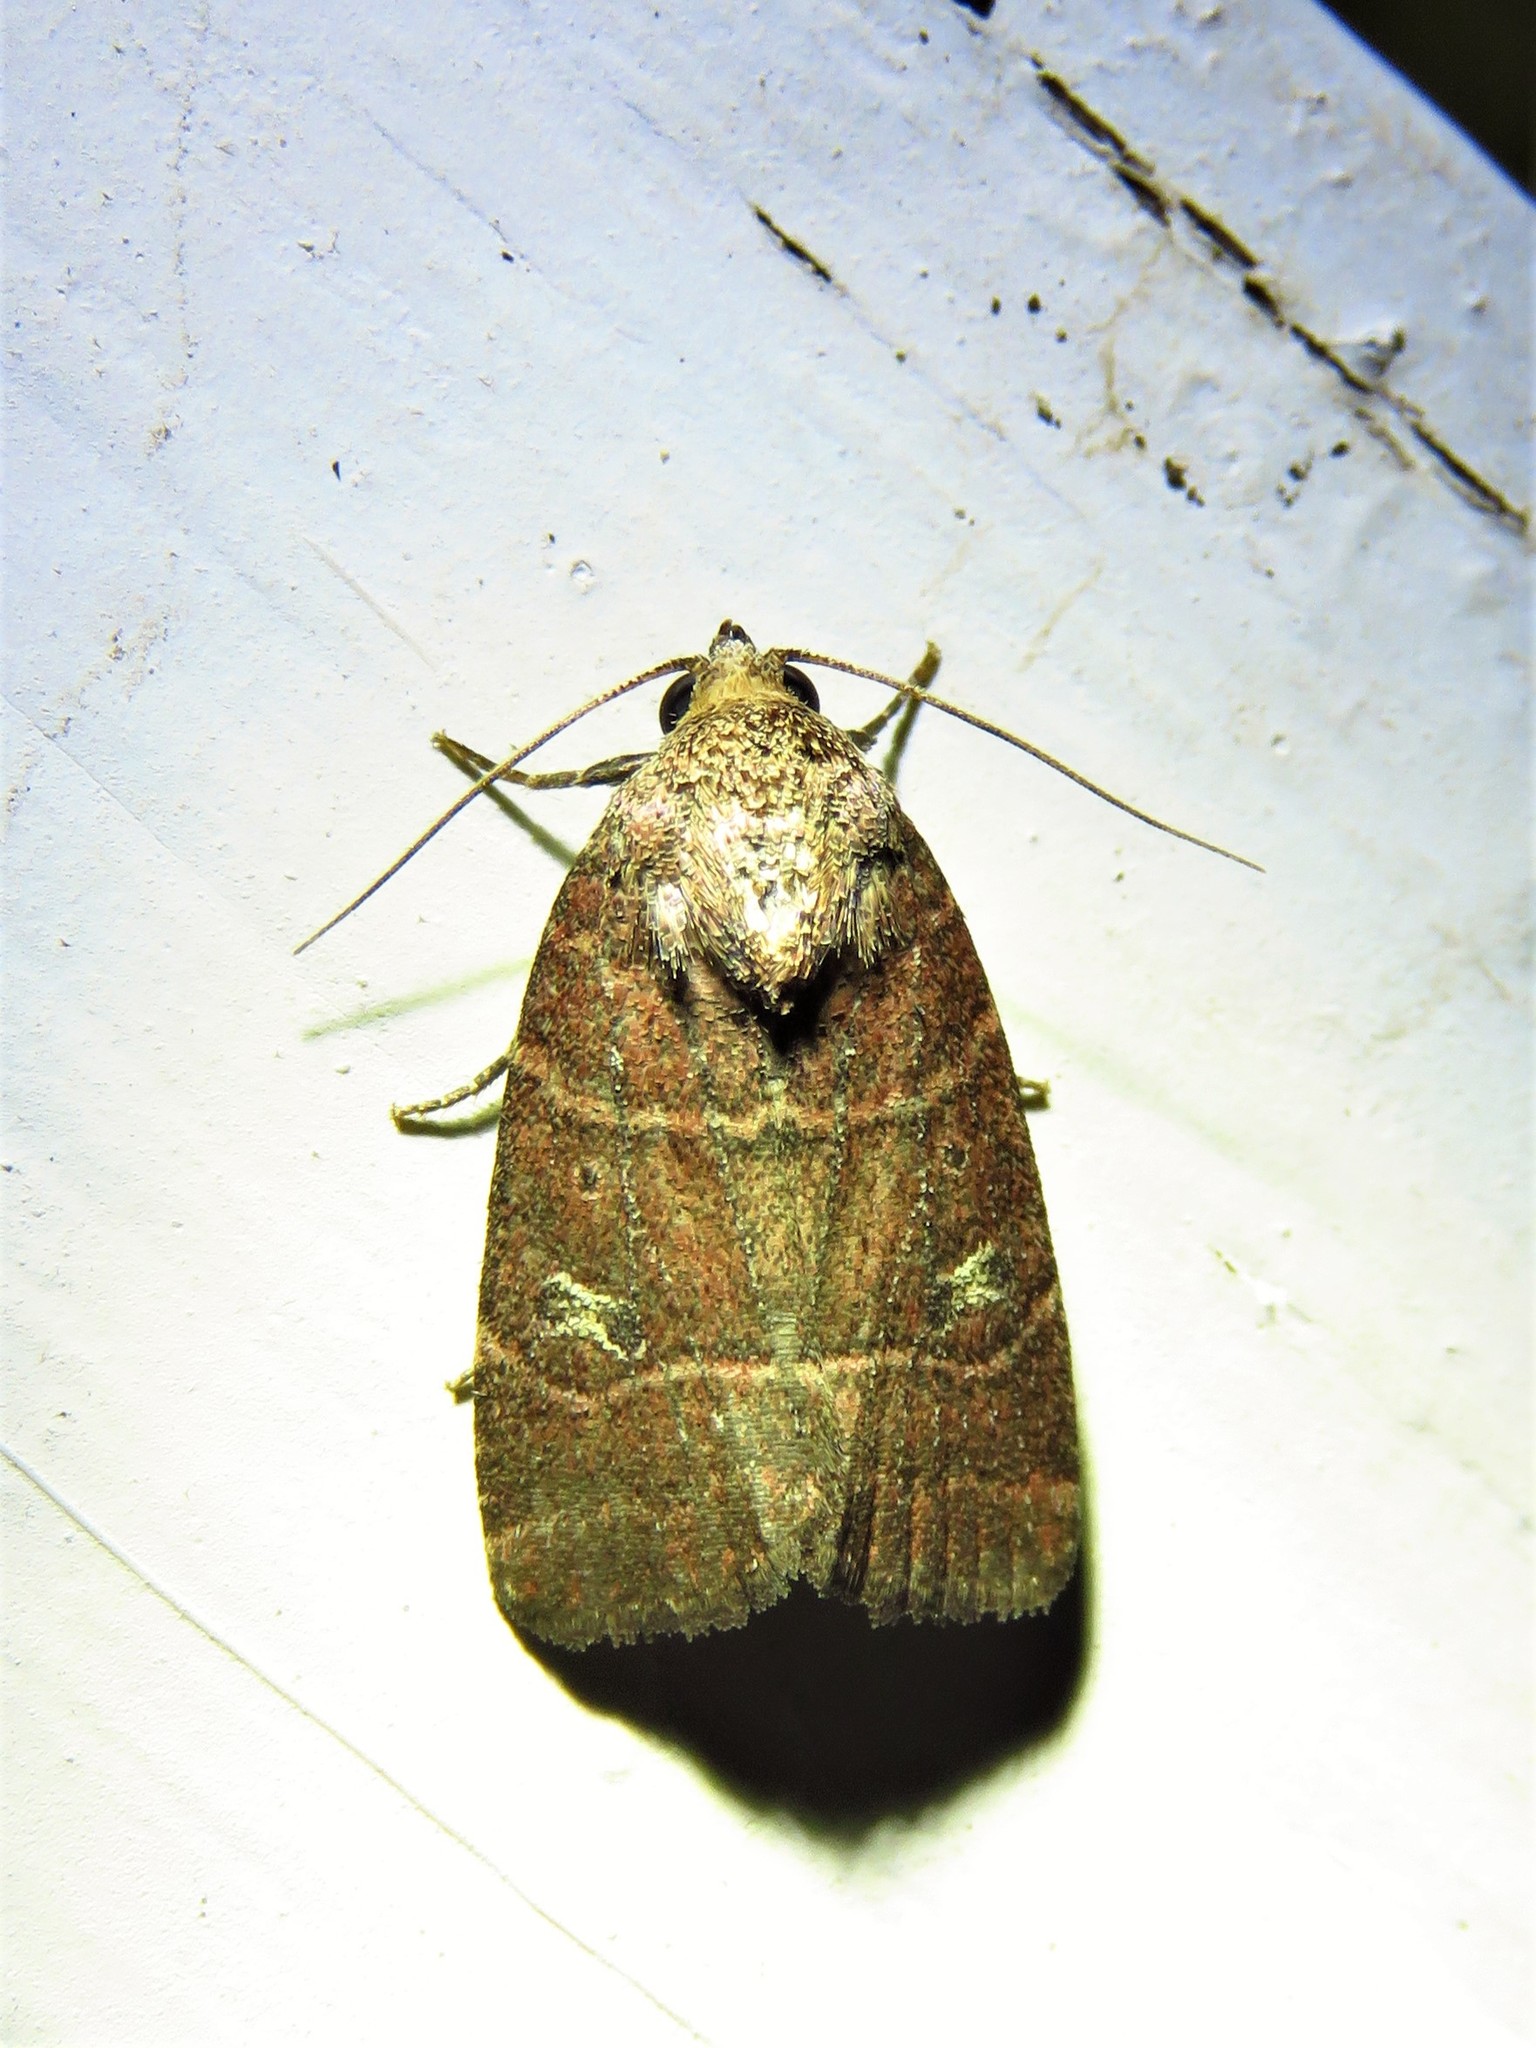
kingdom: Animalia
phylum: Arthropoda
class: Insecta
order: Lepidoptera
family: Noctuidae
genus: Elaphria
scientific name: Elaphria grata
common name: Grateful midget moth
